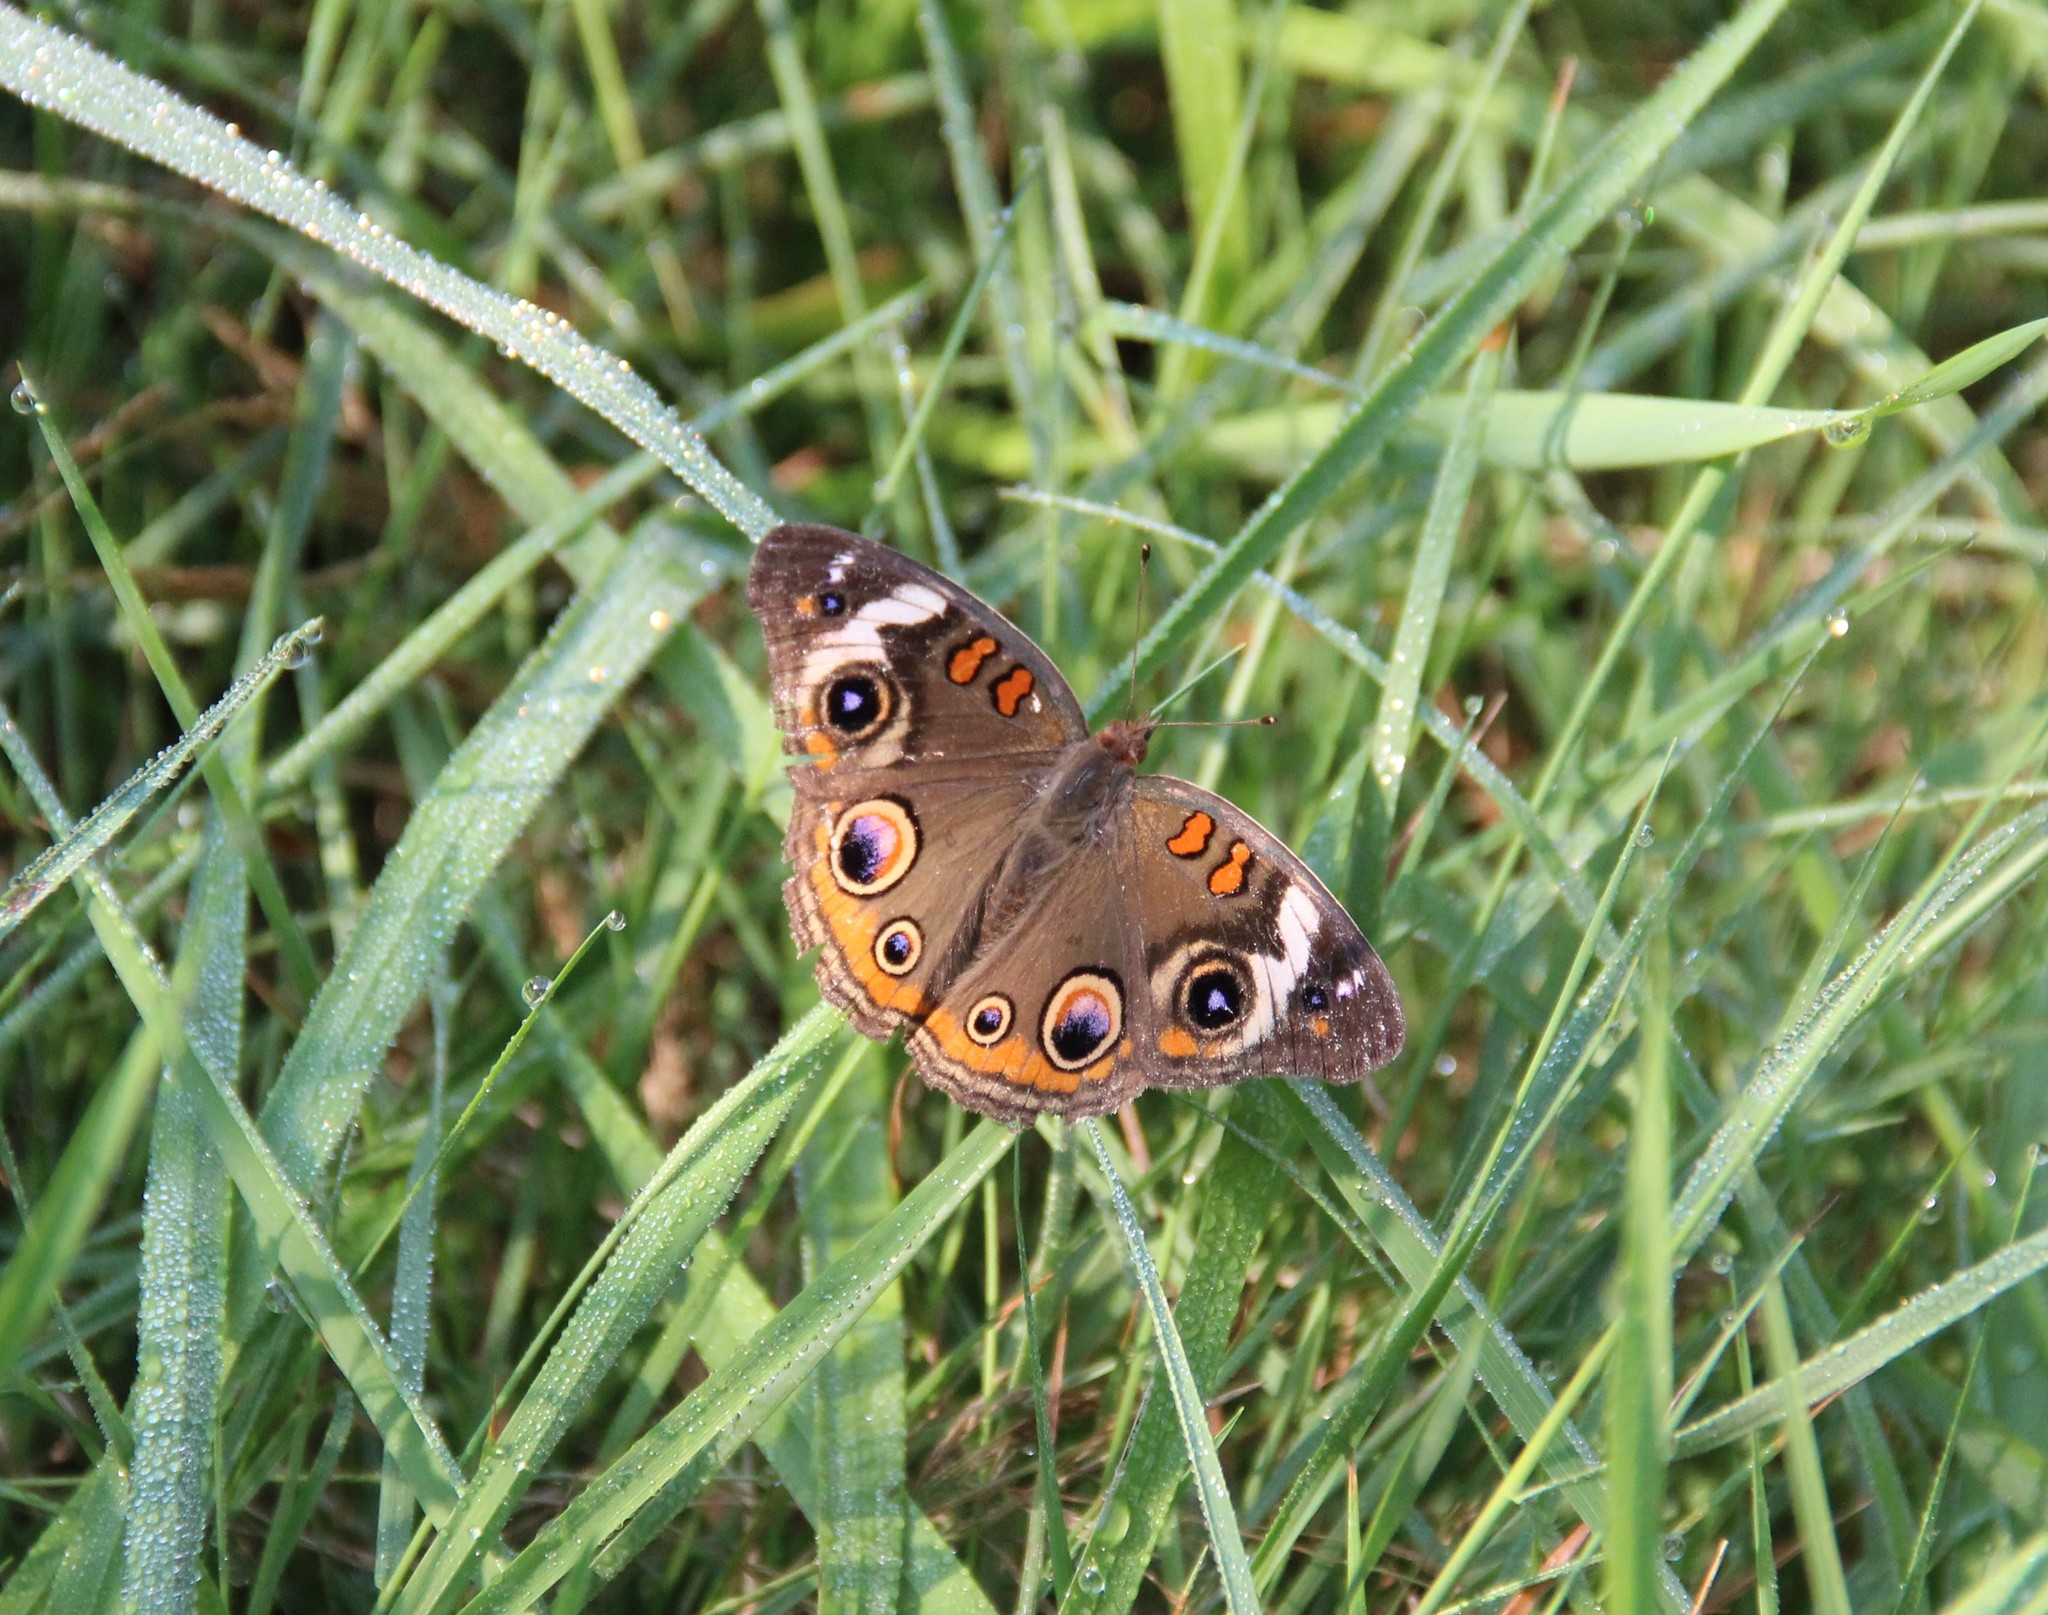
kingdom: Animalia
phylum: Arthropoda
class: Insecta
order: Lepidoptera
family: Nymphalidae
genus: Junonia
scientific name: Junonia coenia
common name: Common buckeye
